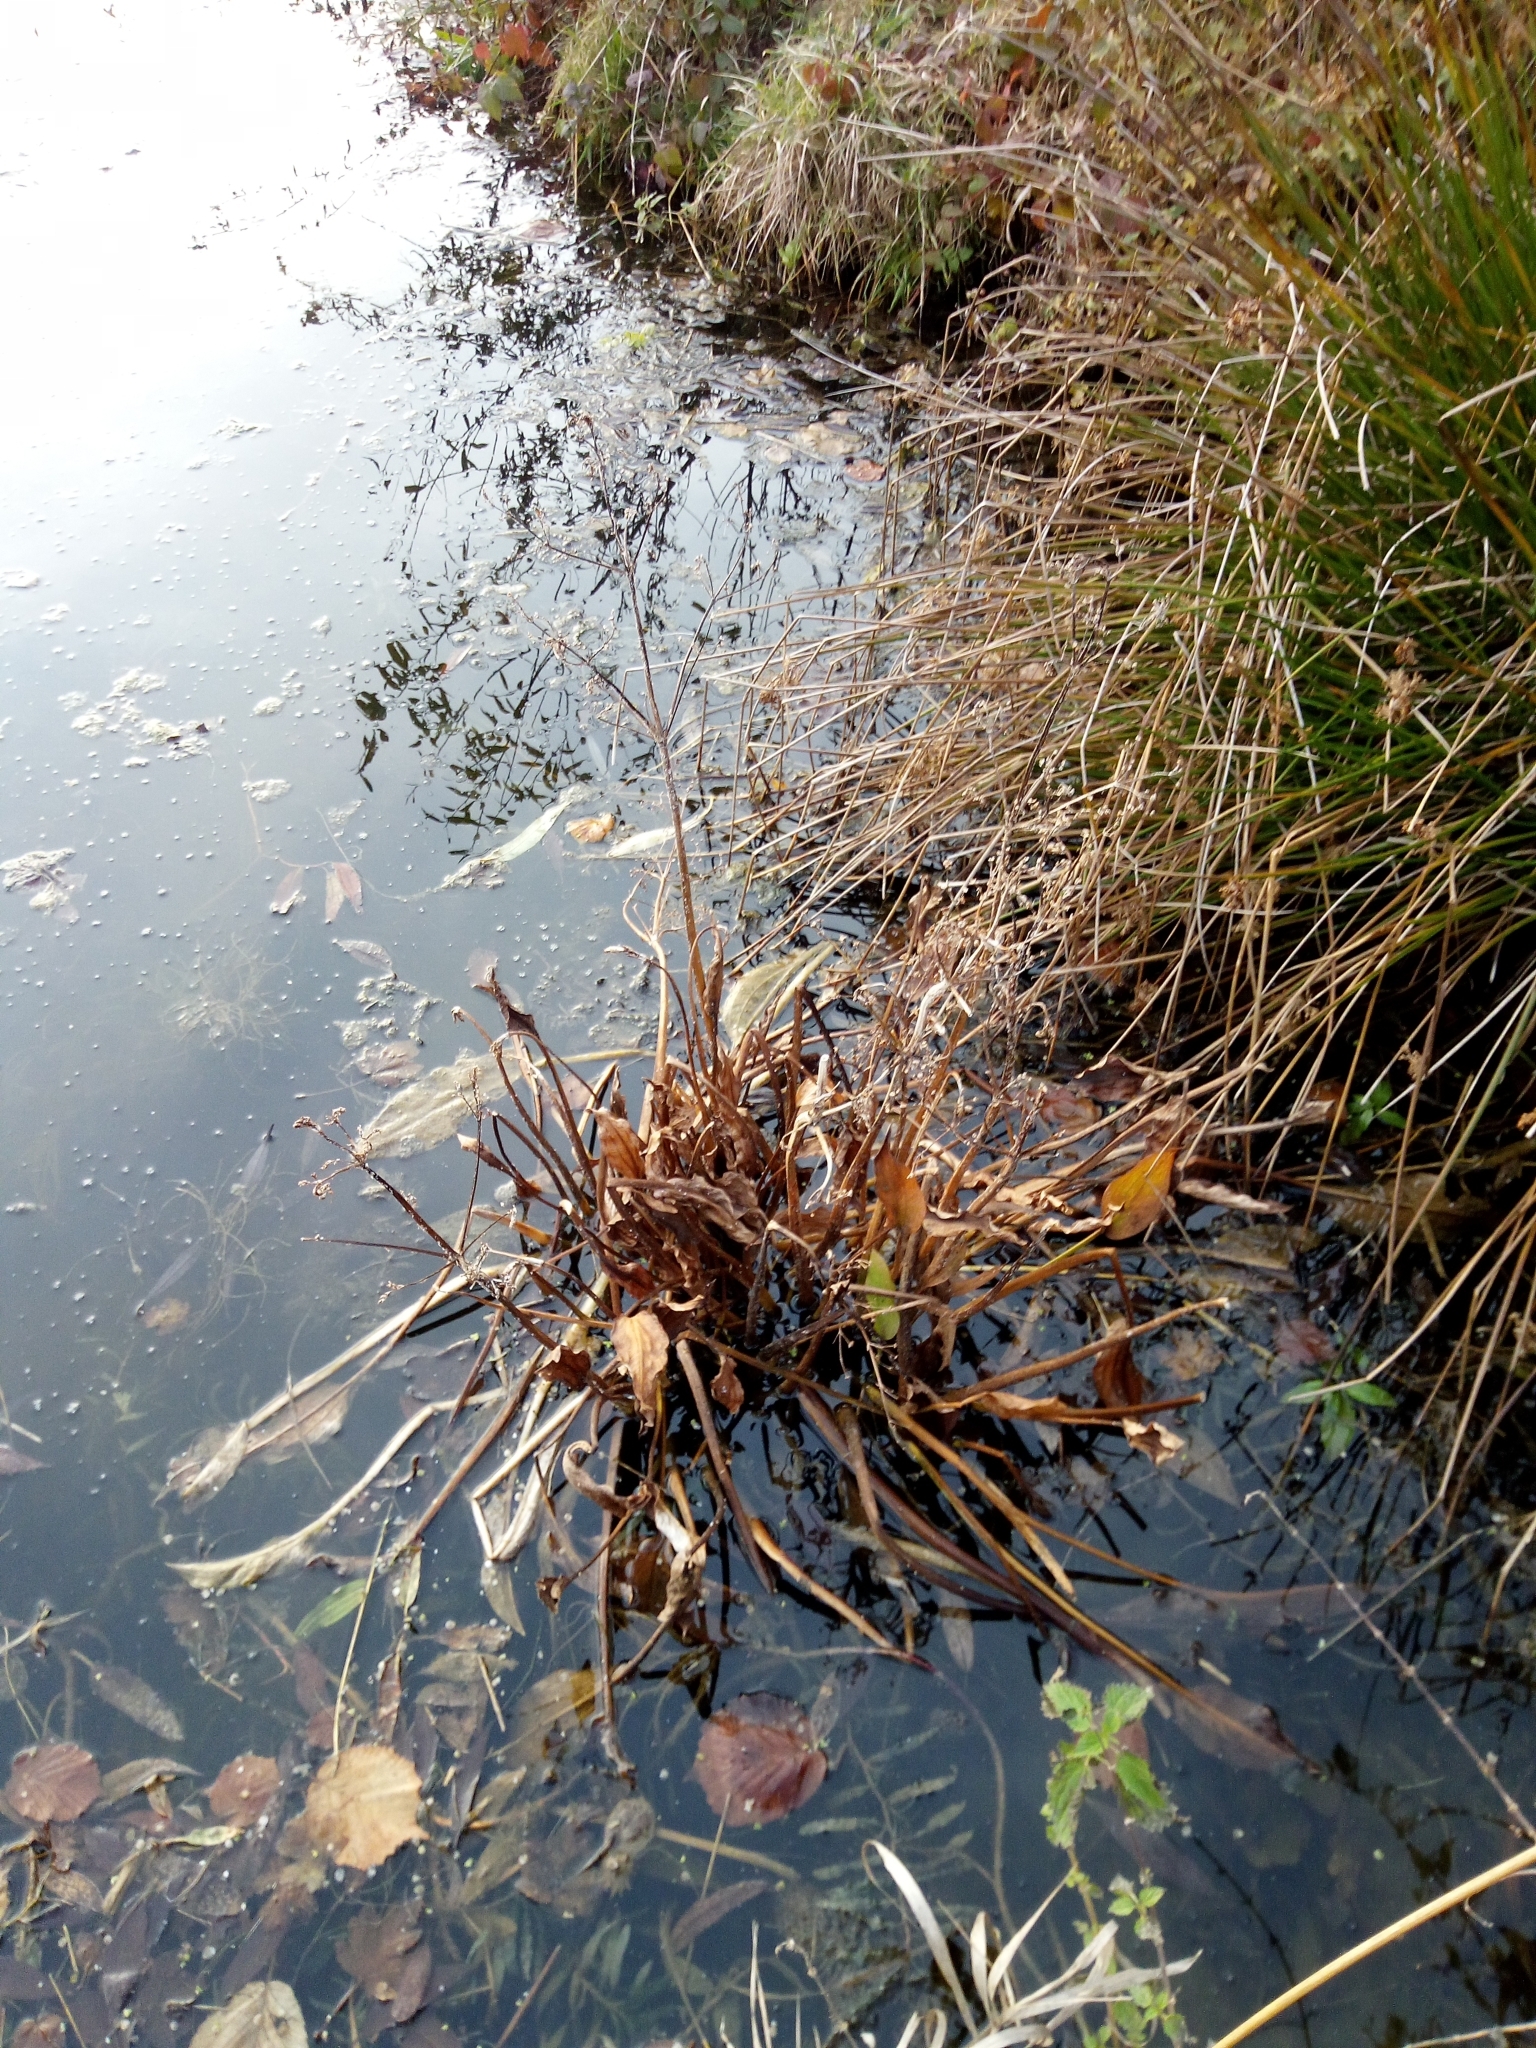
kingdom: Plantae
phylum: Tracheophyta
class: Liliopsida
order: Alismatales
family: Alismataceae
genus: Alisma
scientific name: Alisma plantago-aquatica
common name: Water-plantain
